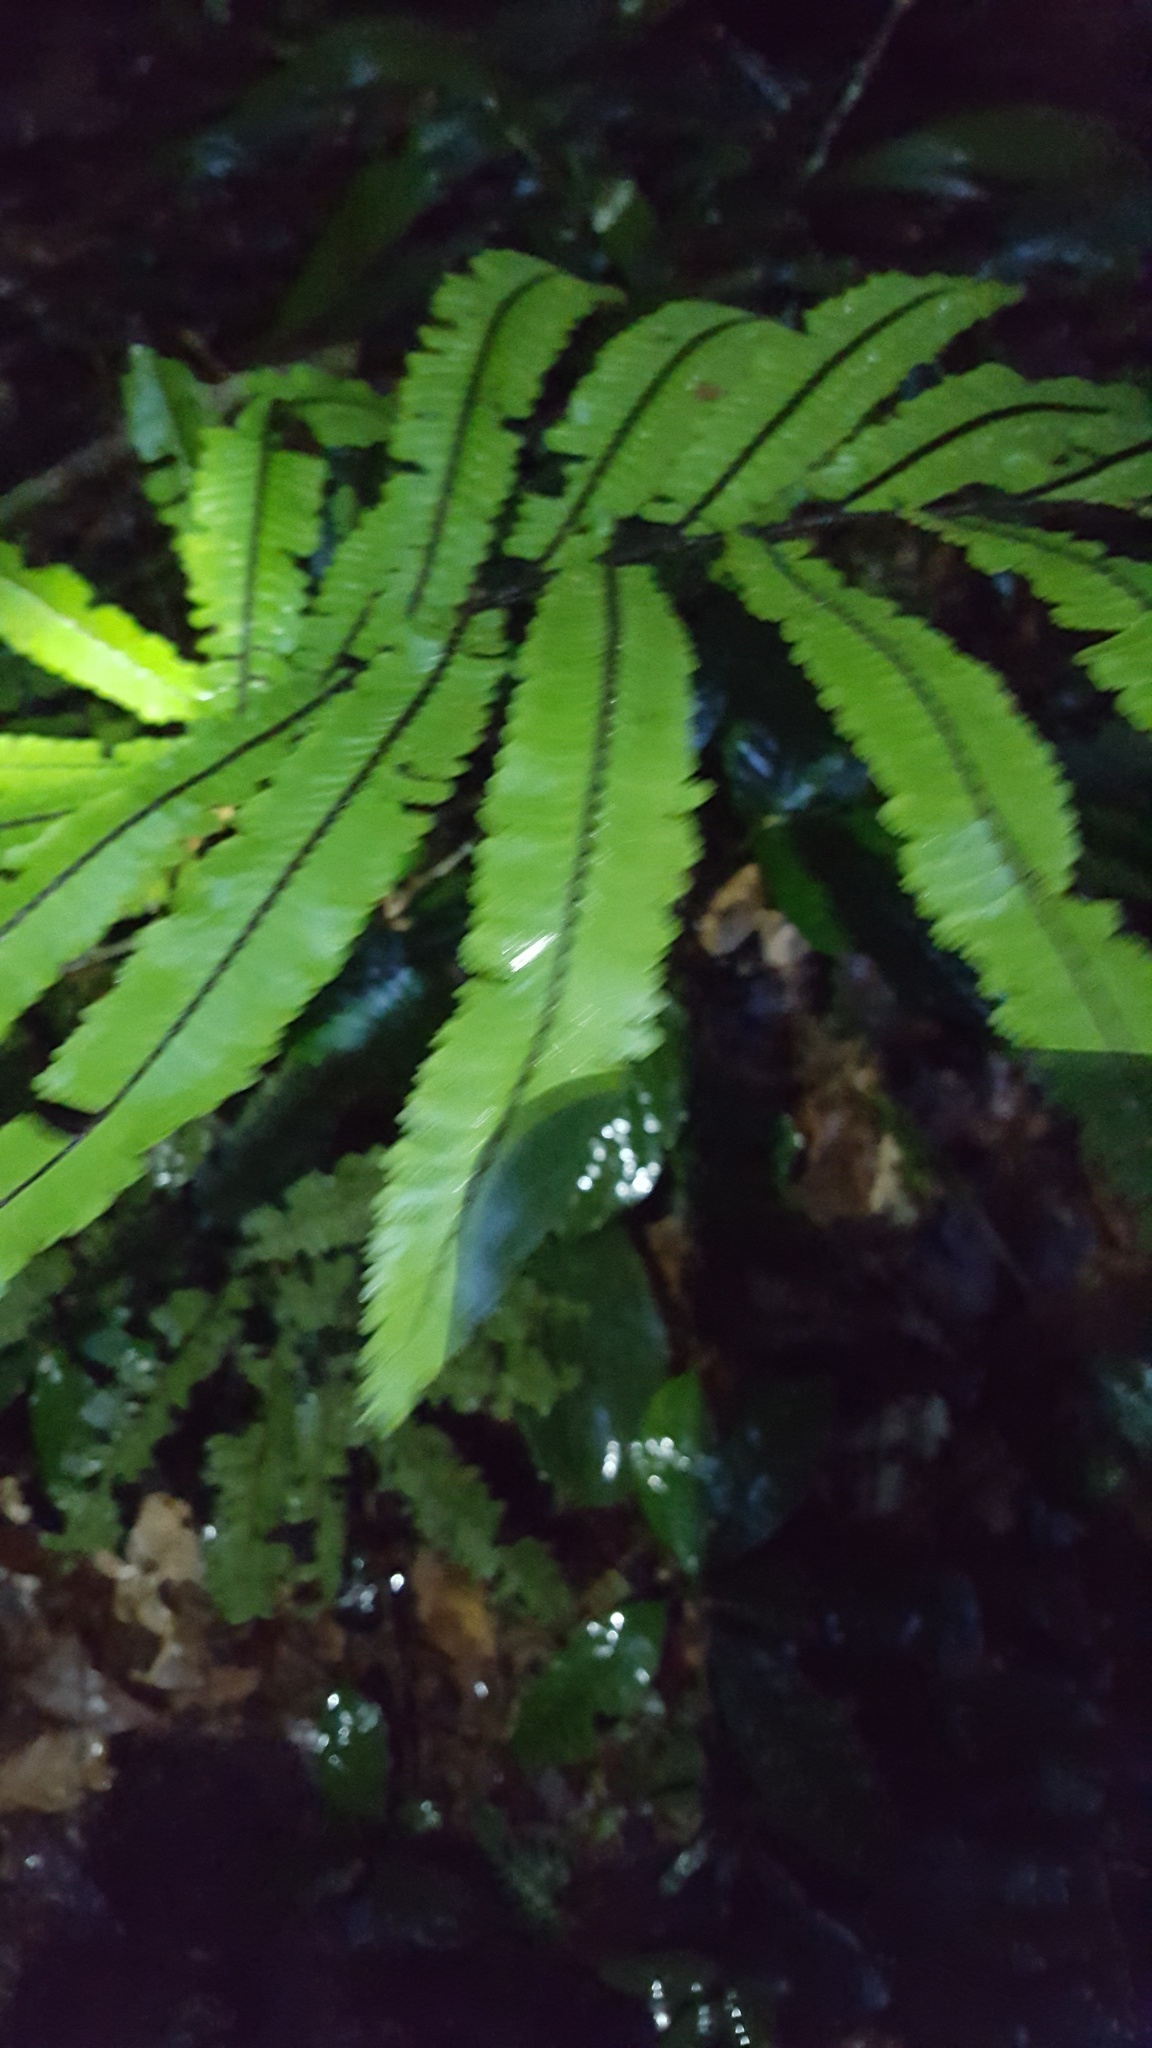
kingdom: Plantae
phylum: Tracheophyta
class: Polypodiopsida
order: Polypodiales
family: Pteridaceae
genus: Adiantum
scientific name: Adiantum cajennense
